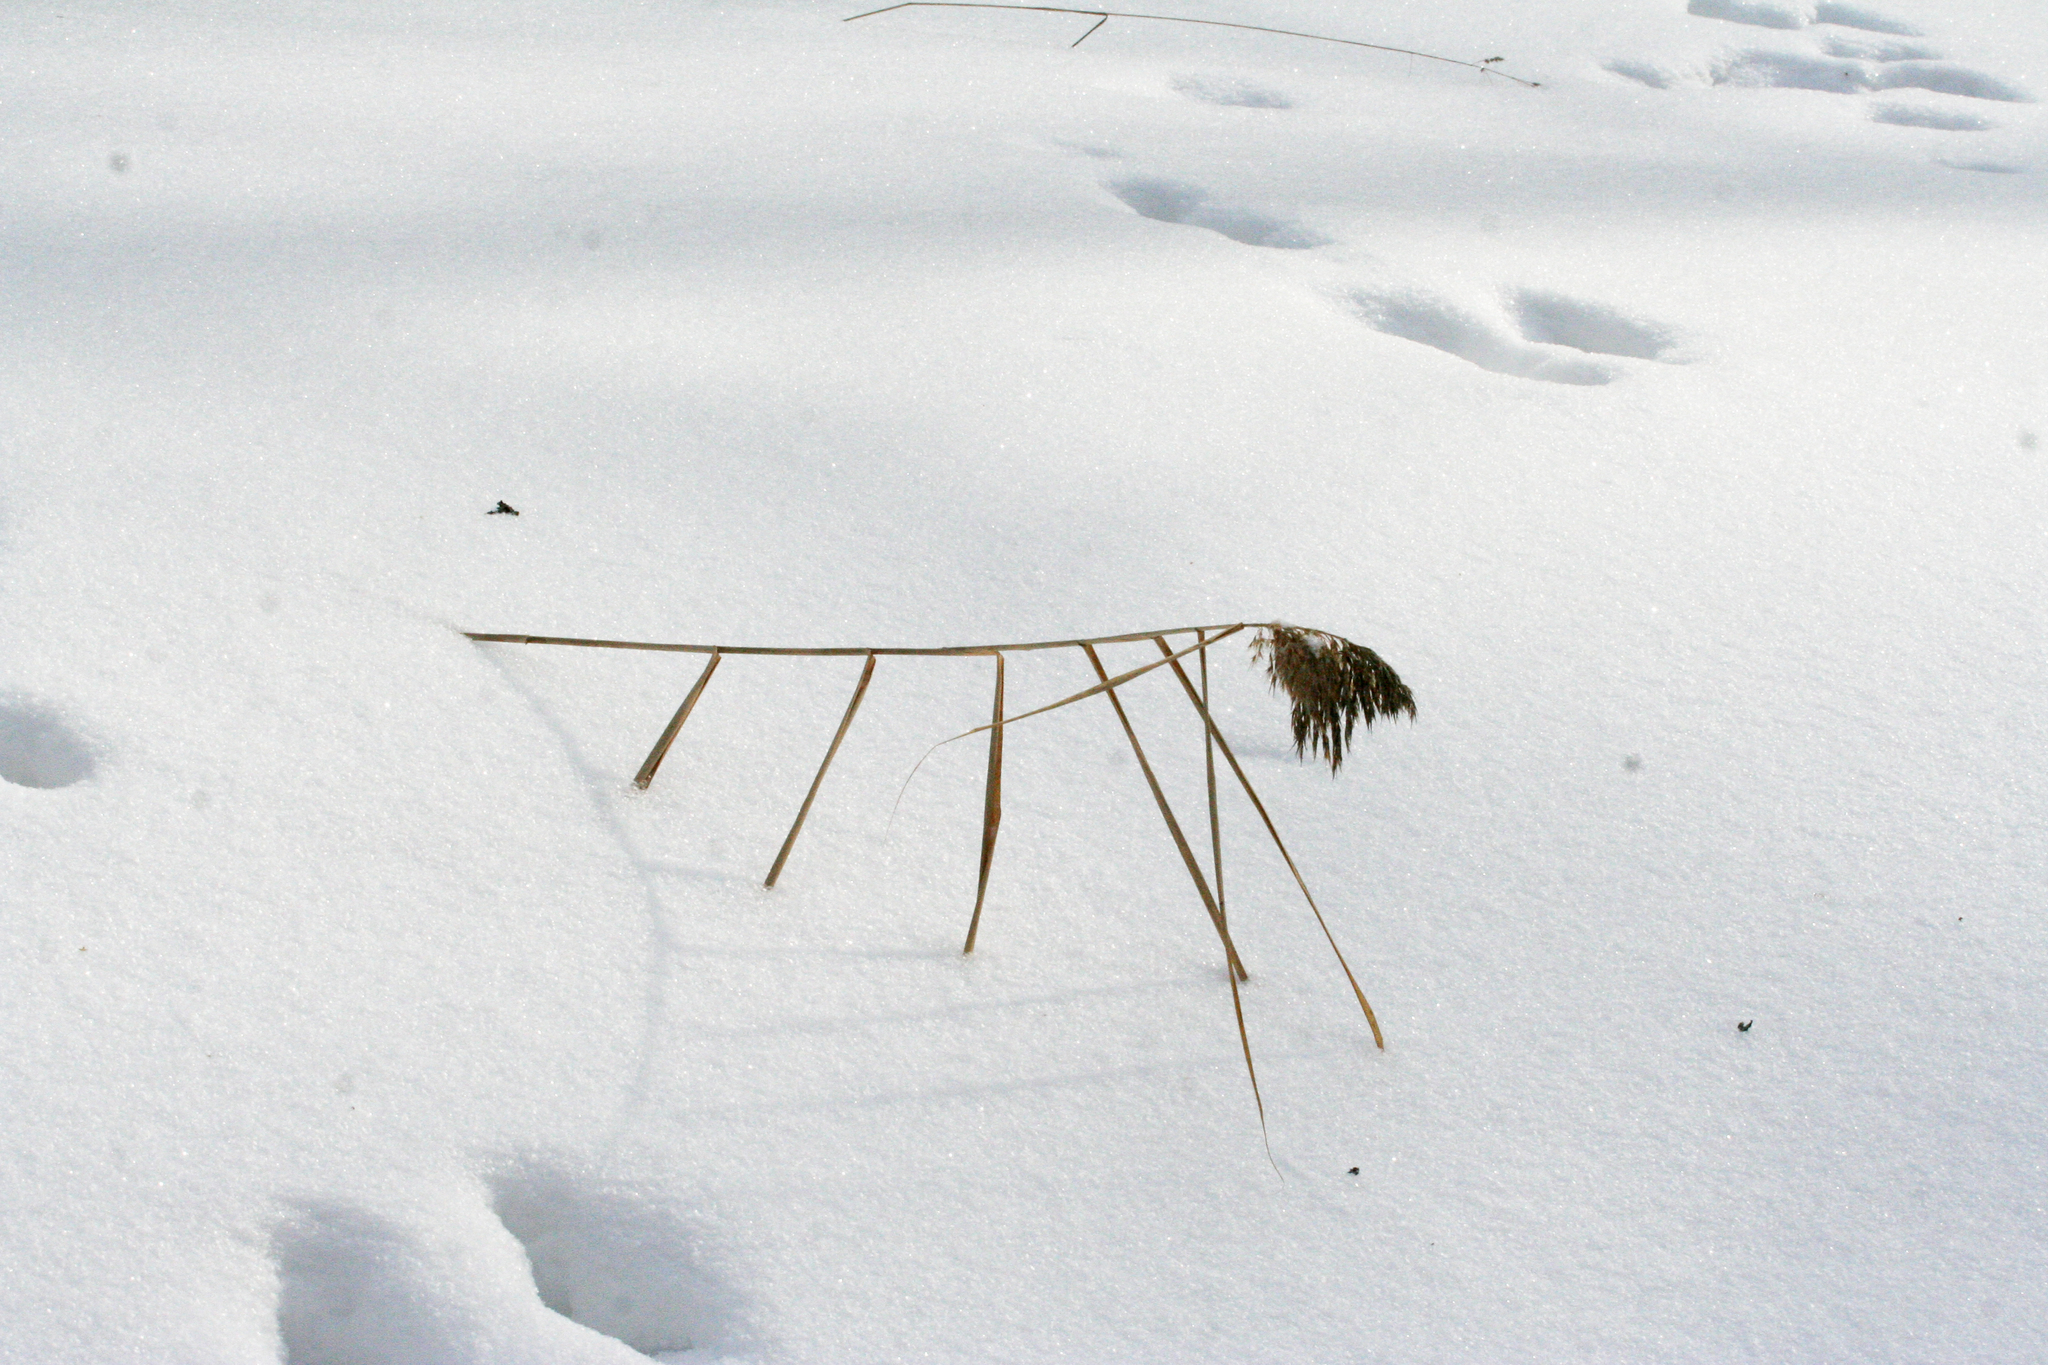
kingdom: Plantae
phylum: Tracheophyta
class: Liliopsida
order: Poales
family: Poaceae
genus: Phragmites
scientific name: Phragmites australis
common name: Common reed
